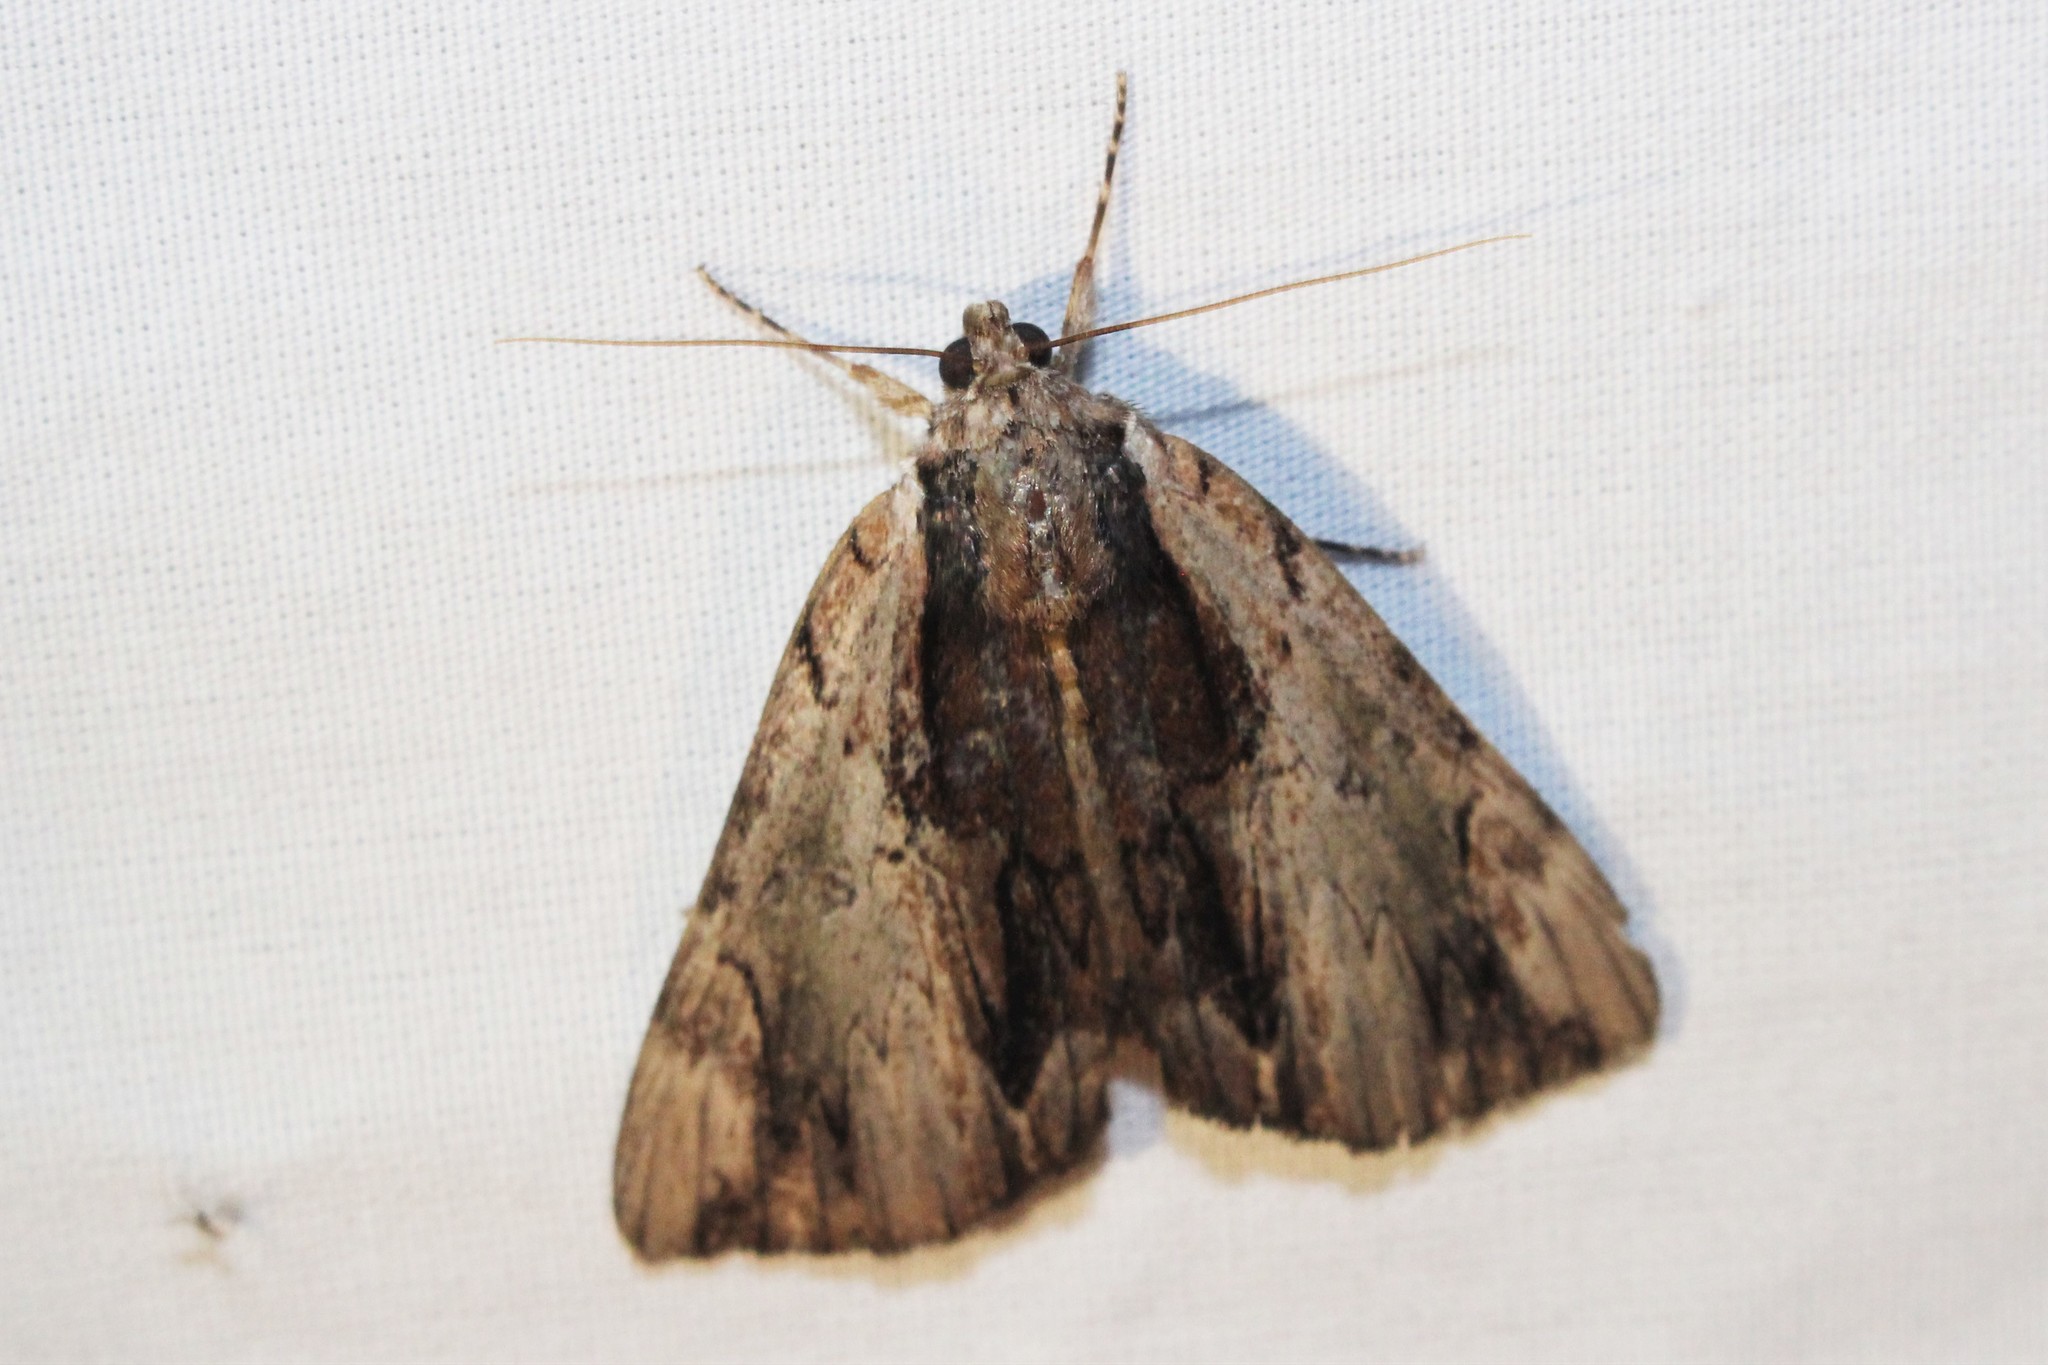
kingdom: Animalia
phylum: Arthropoda
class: Insecta
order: Lepidoptera
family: Erebidae
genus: Catocala
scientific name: Catocala ultronia
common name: Ultronia underwing
